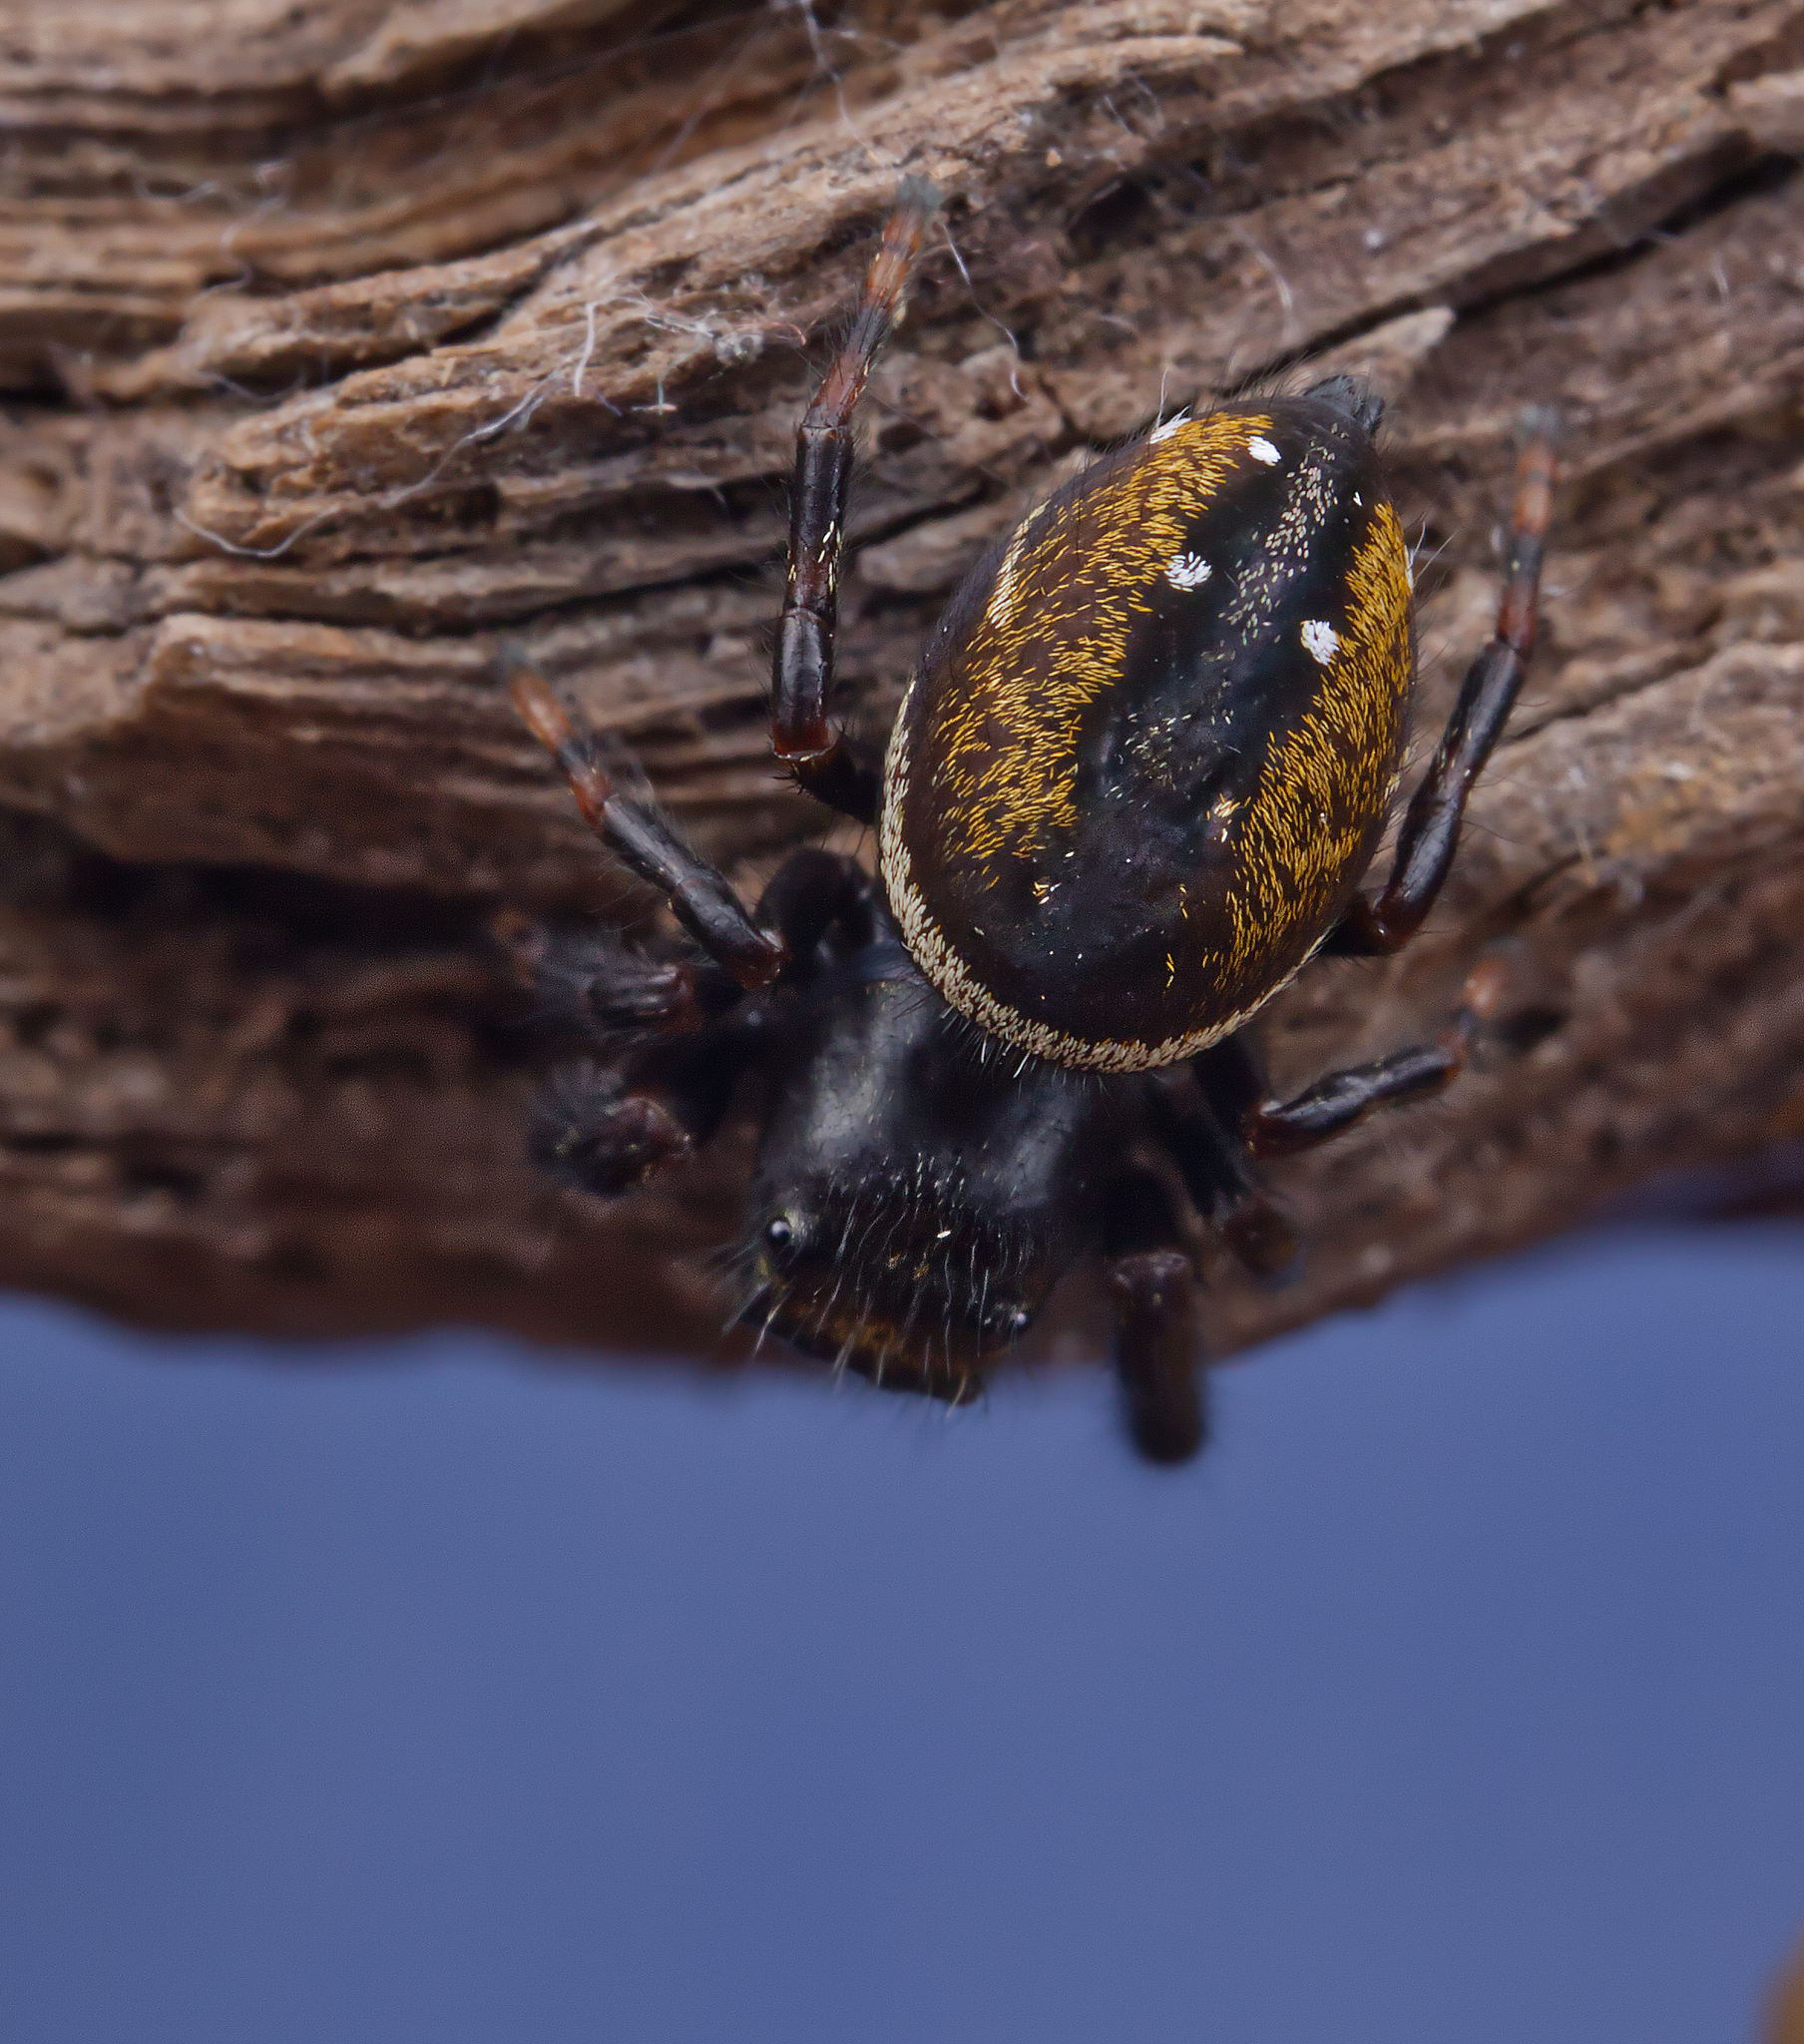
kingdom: Animalia
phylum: Arthropoda
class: Arachnida
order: Araneae
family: Salticidae
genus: Phidippus
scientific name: Phidippus clarus
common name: Brilliant jumping spider
